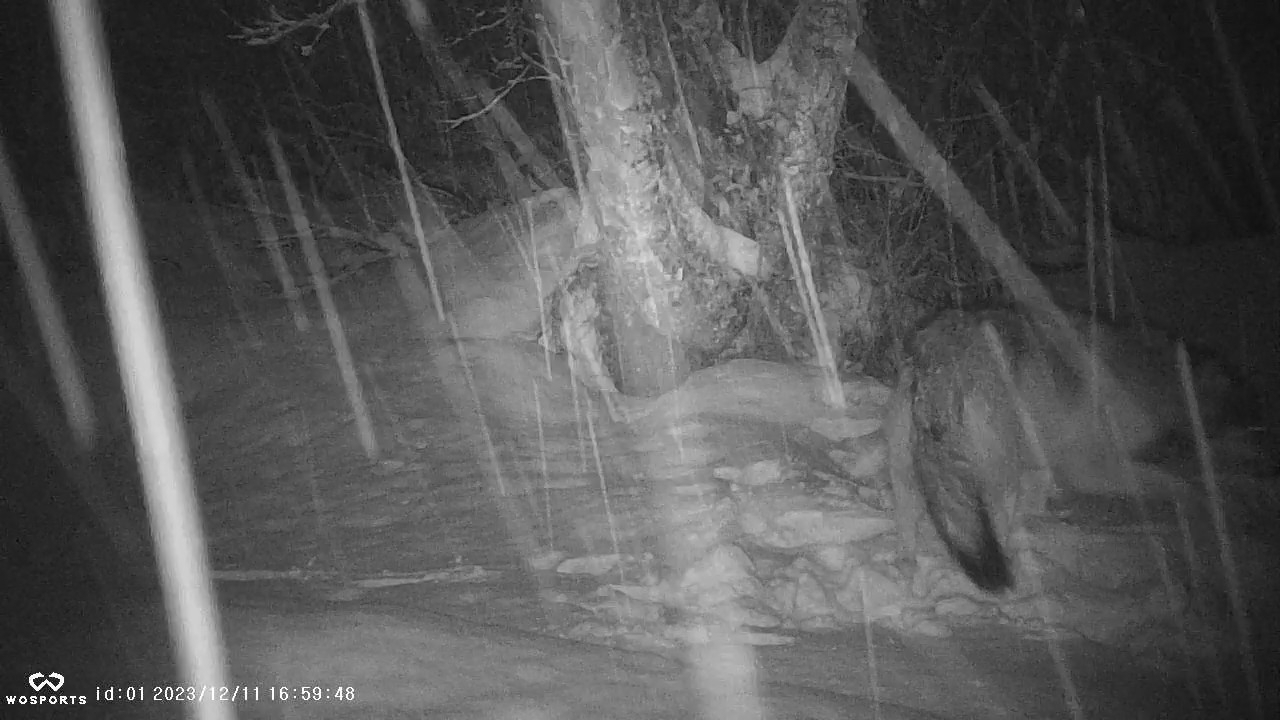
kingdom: Animalia
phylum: Chordata
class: Mammalia
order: Carnivora
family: Canidae
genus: Canis
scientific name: Canis lupus
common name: Gray wolf
